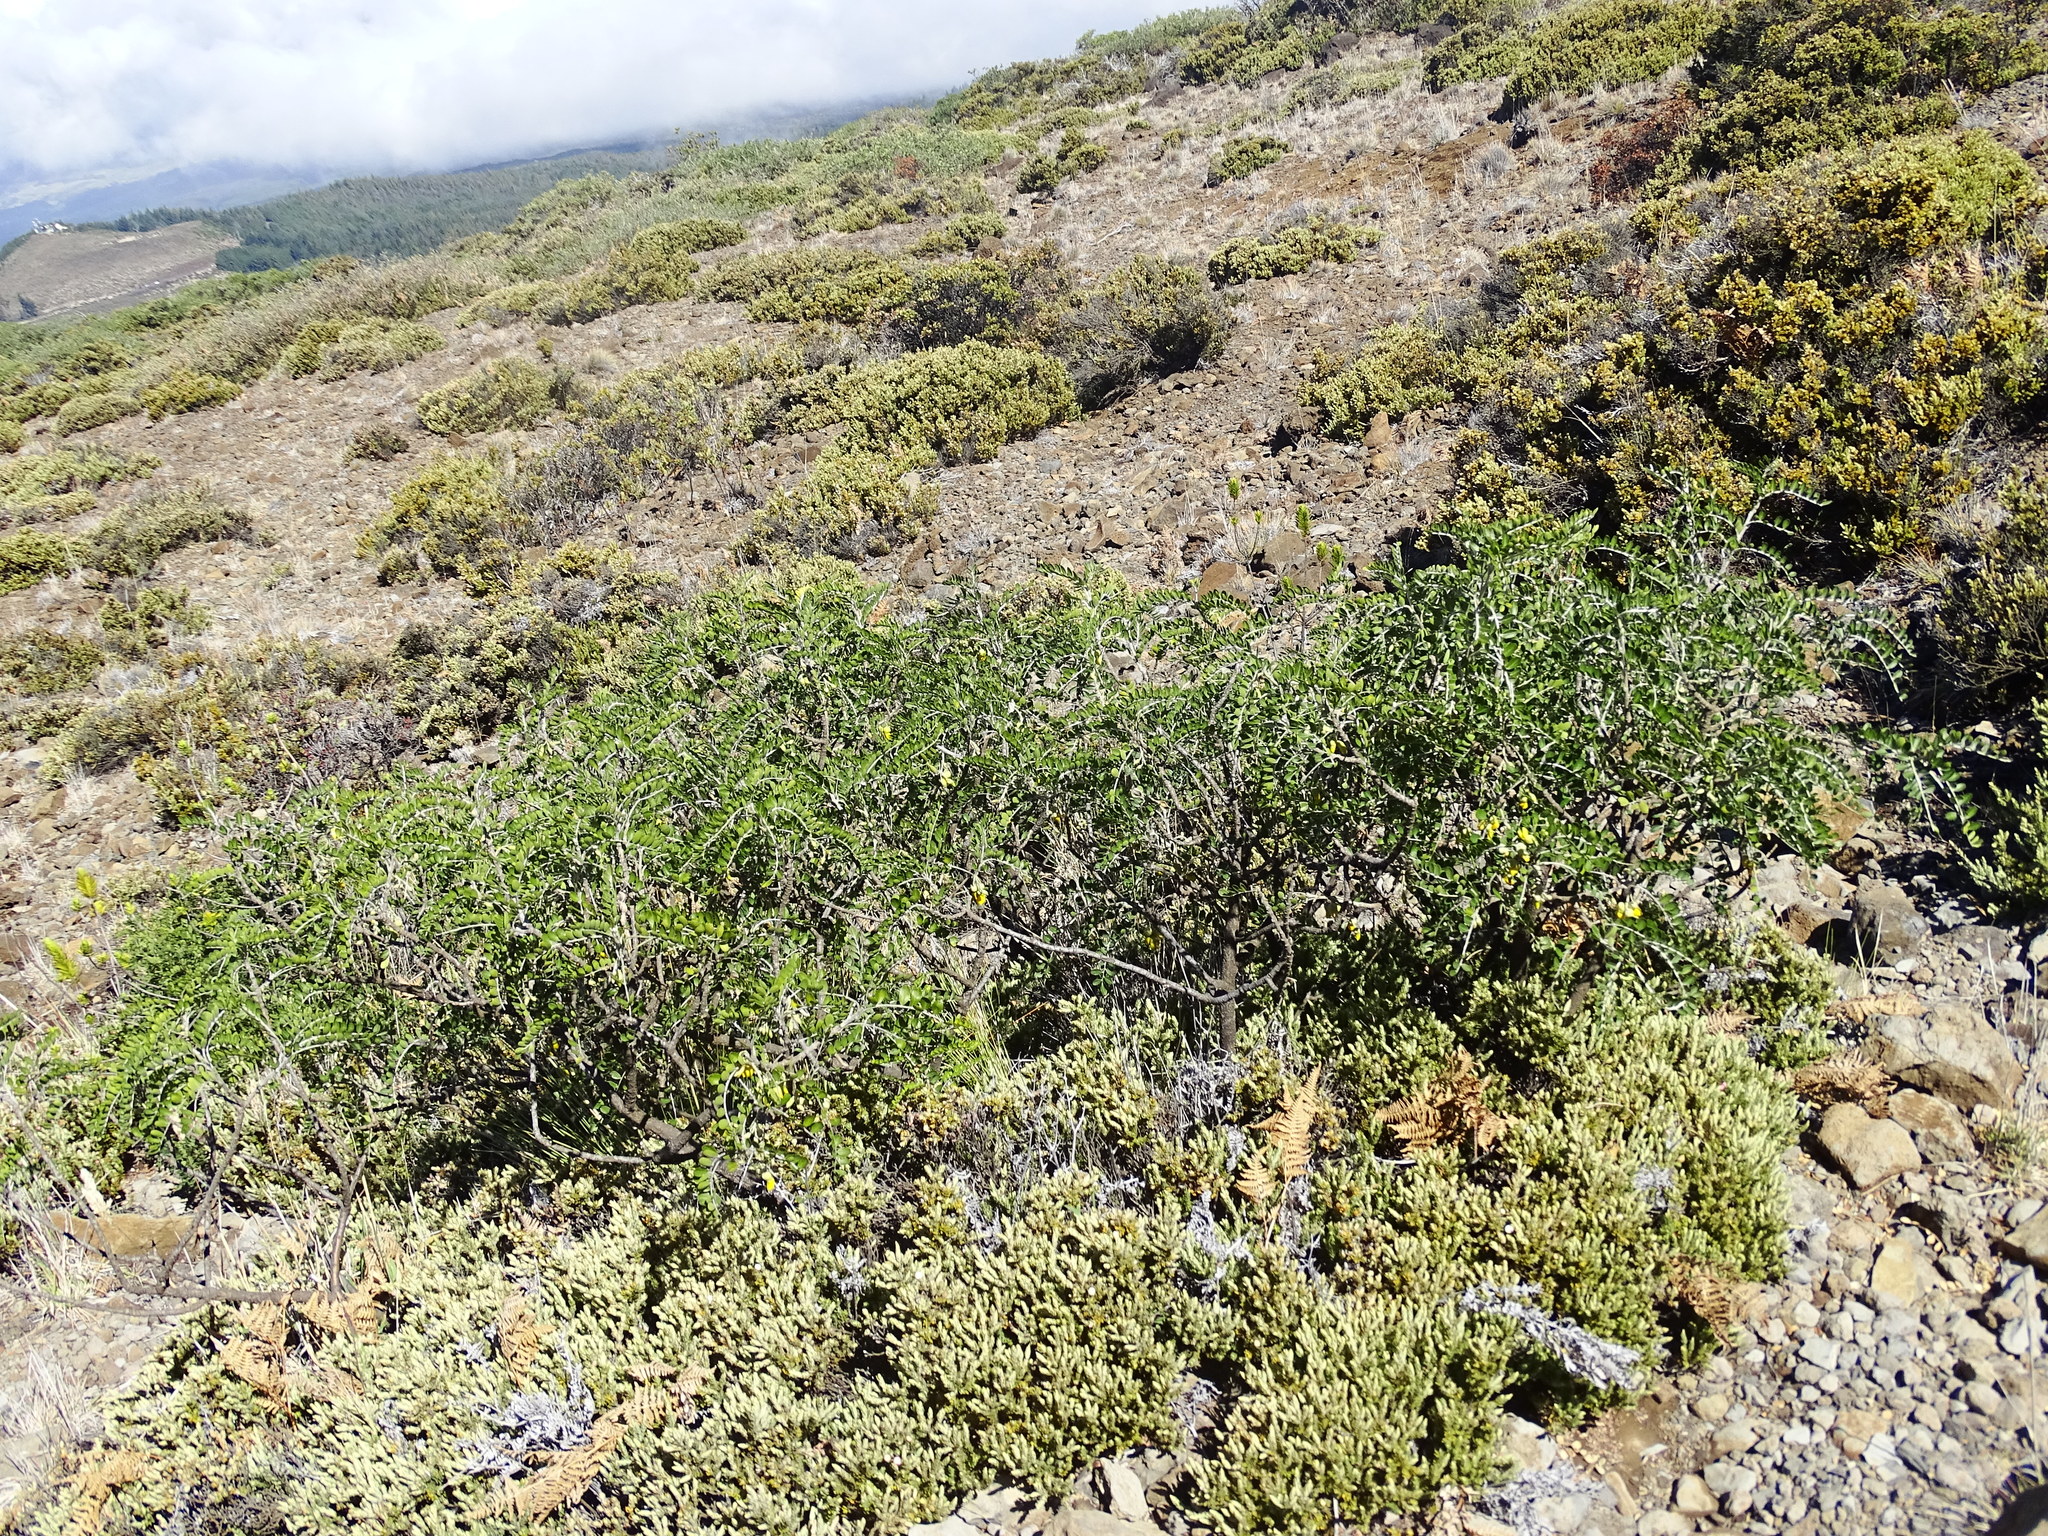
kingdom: Plantae
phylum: Tracheophyta
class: Magnoliopsida
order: Fabales
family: Fabaceae
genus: Sophora
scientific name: Sophora chrysophylla
